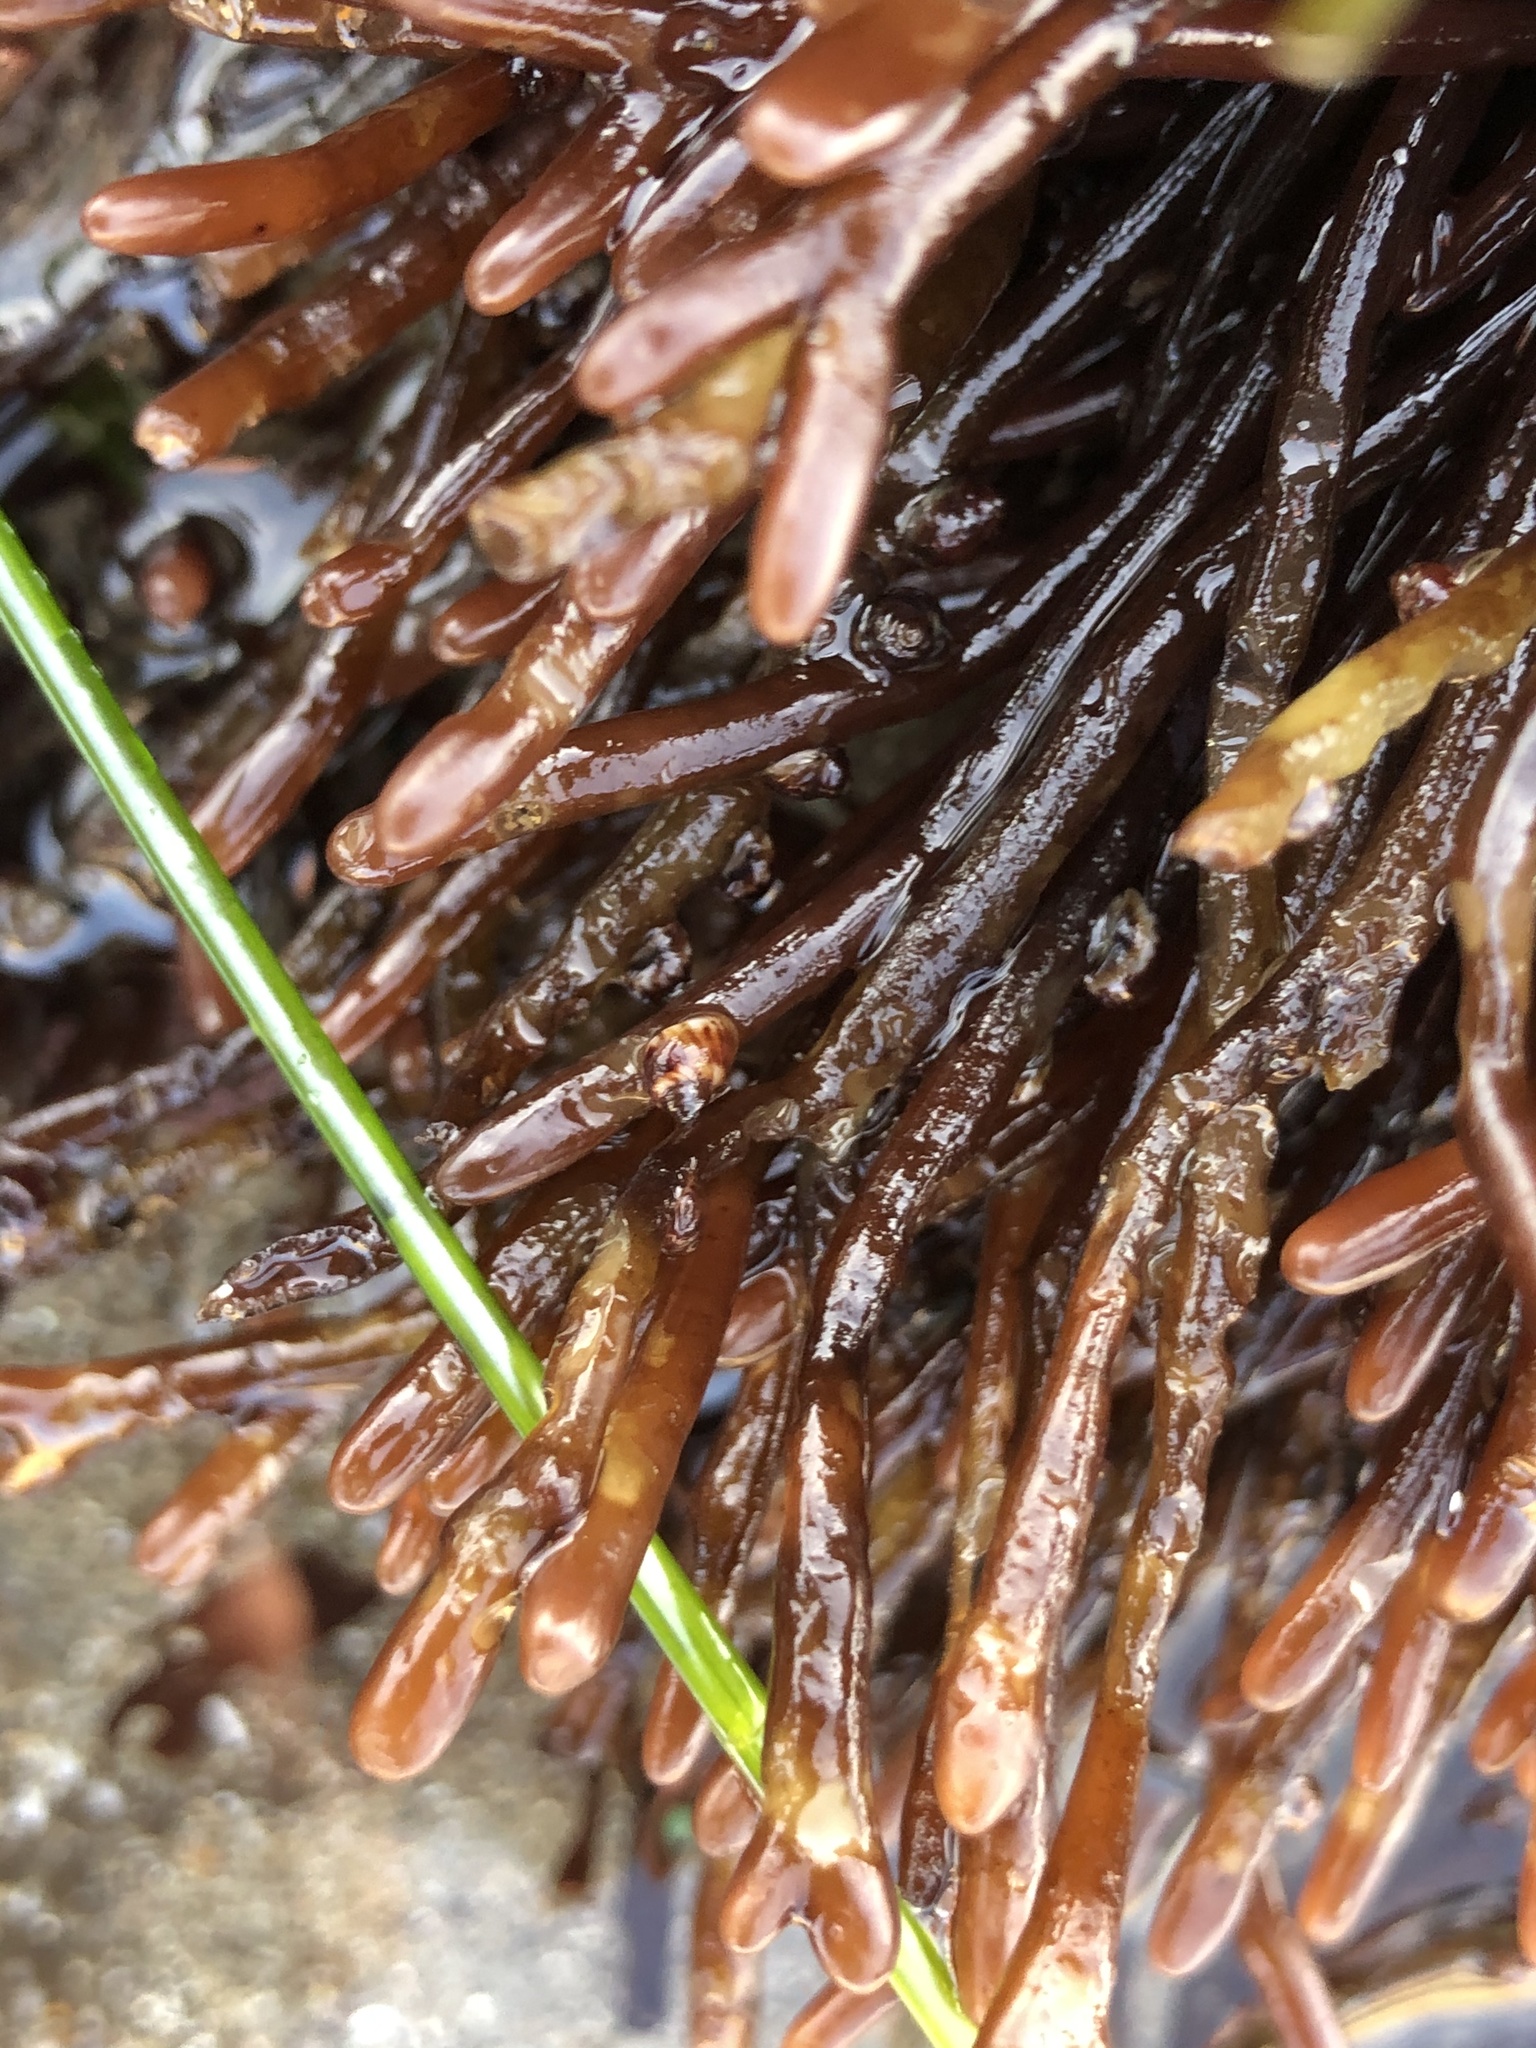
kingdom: Plantae
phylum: Rhodophyta
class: Florideophyceae
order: Gigartinales
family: Phyllophoraceae
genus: Ahnfeltiopsis
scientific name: Ahnfeltiopsis linearis
